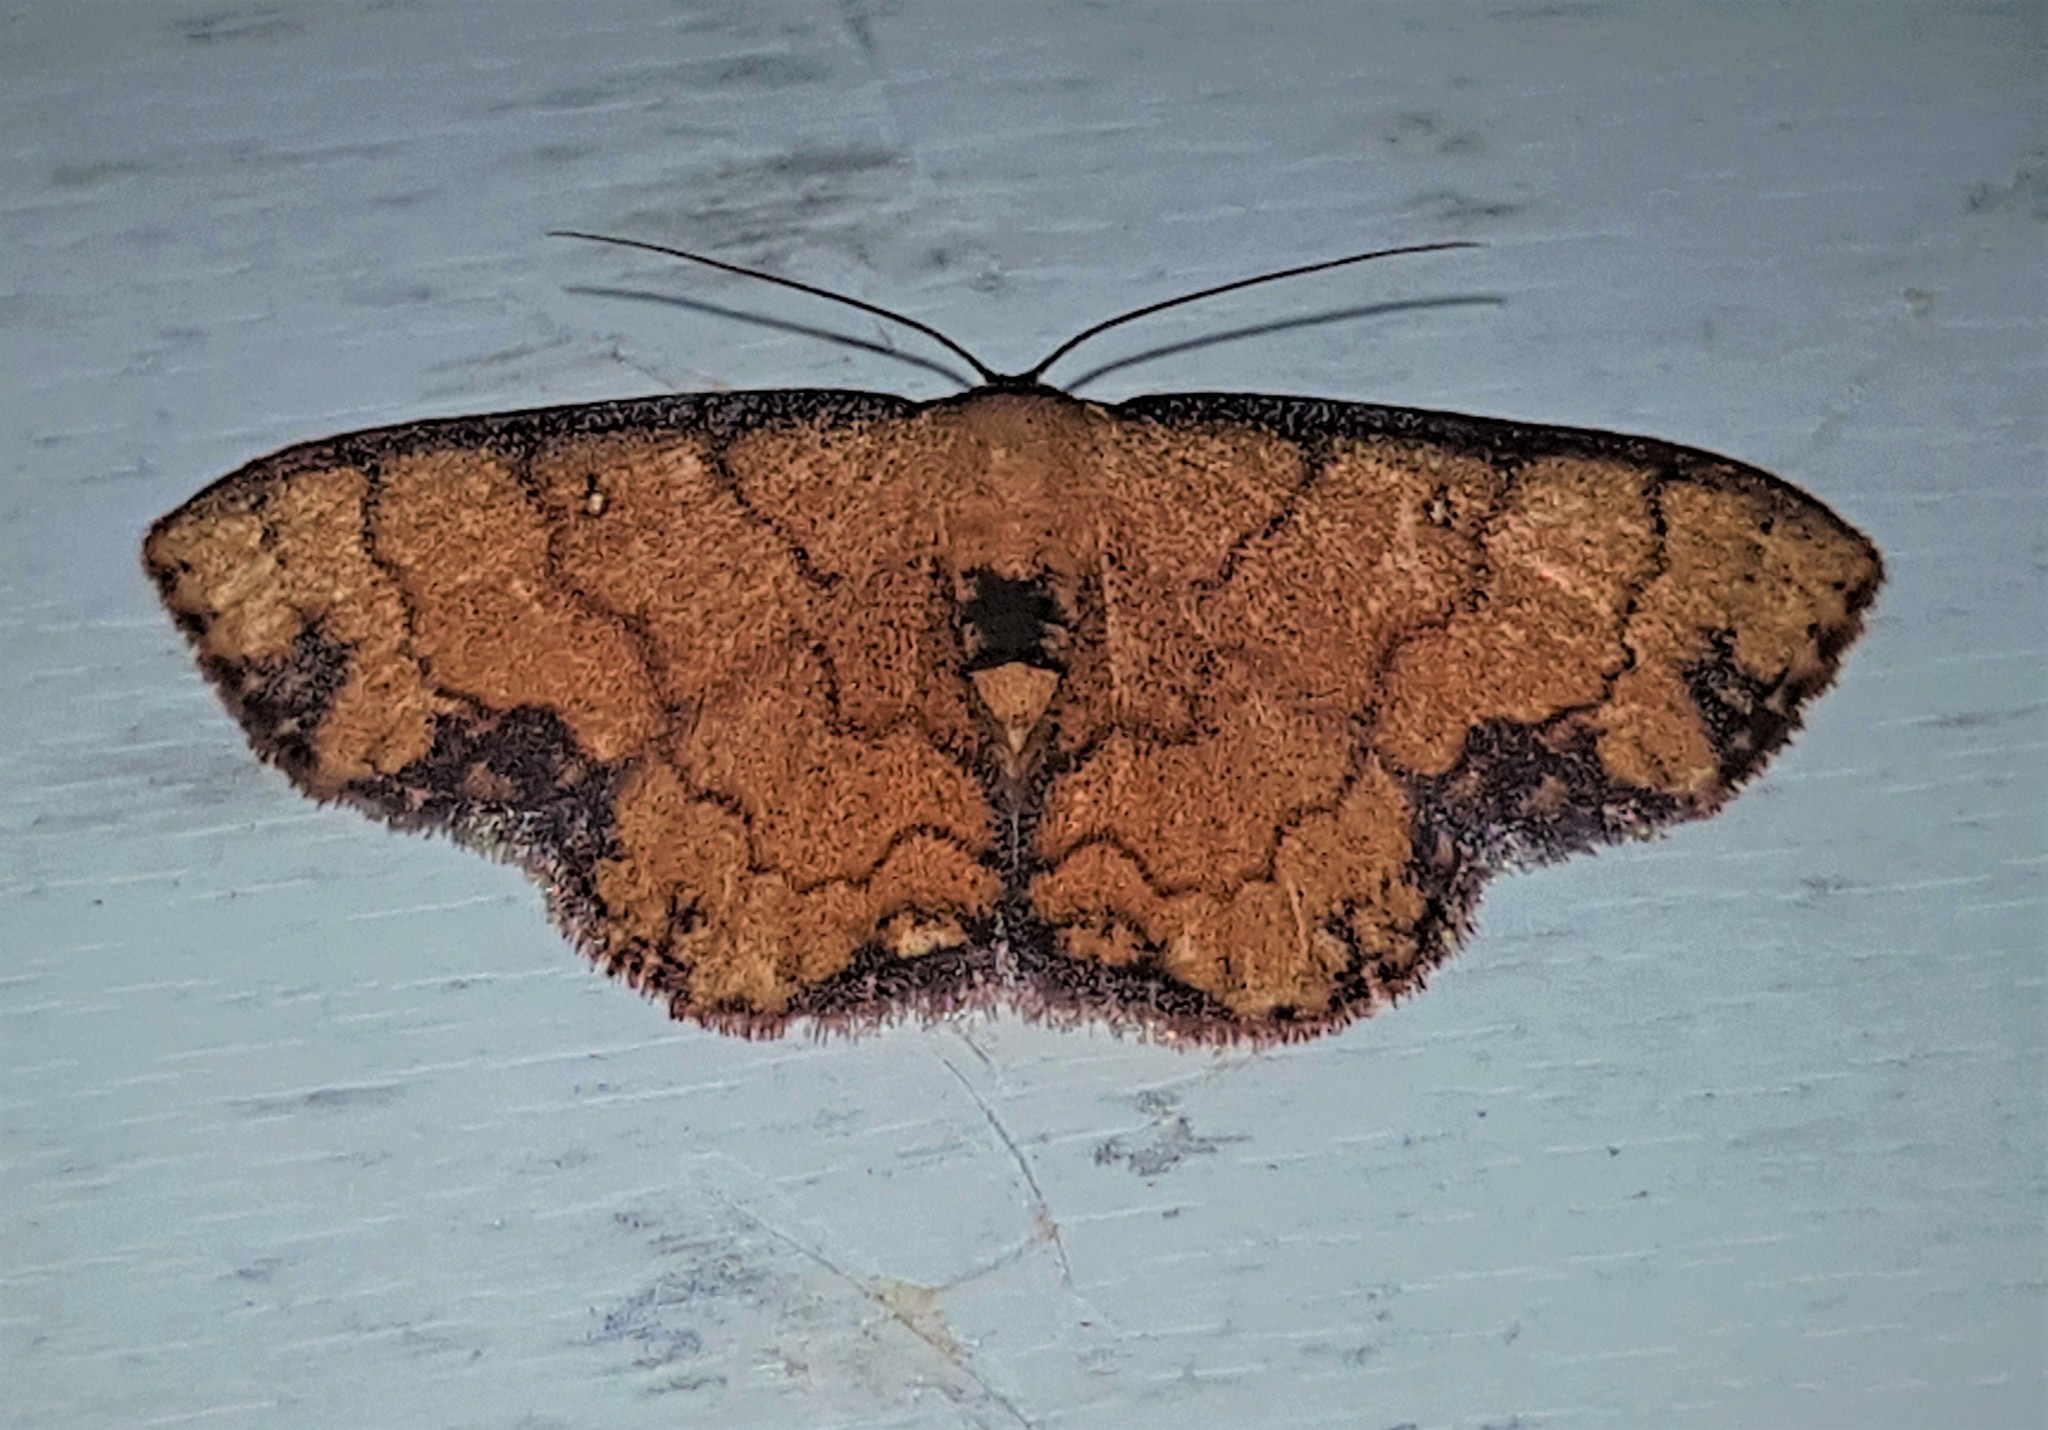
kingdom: Animalia
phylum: Arthropoda
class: Insecta
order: Lepidoptera
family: Geometridae
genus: Semaeopus
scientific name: Semaeopus bimacula
